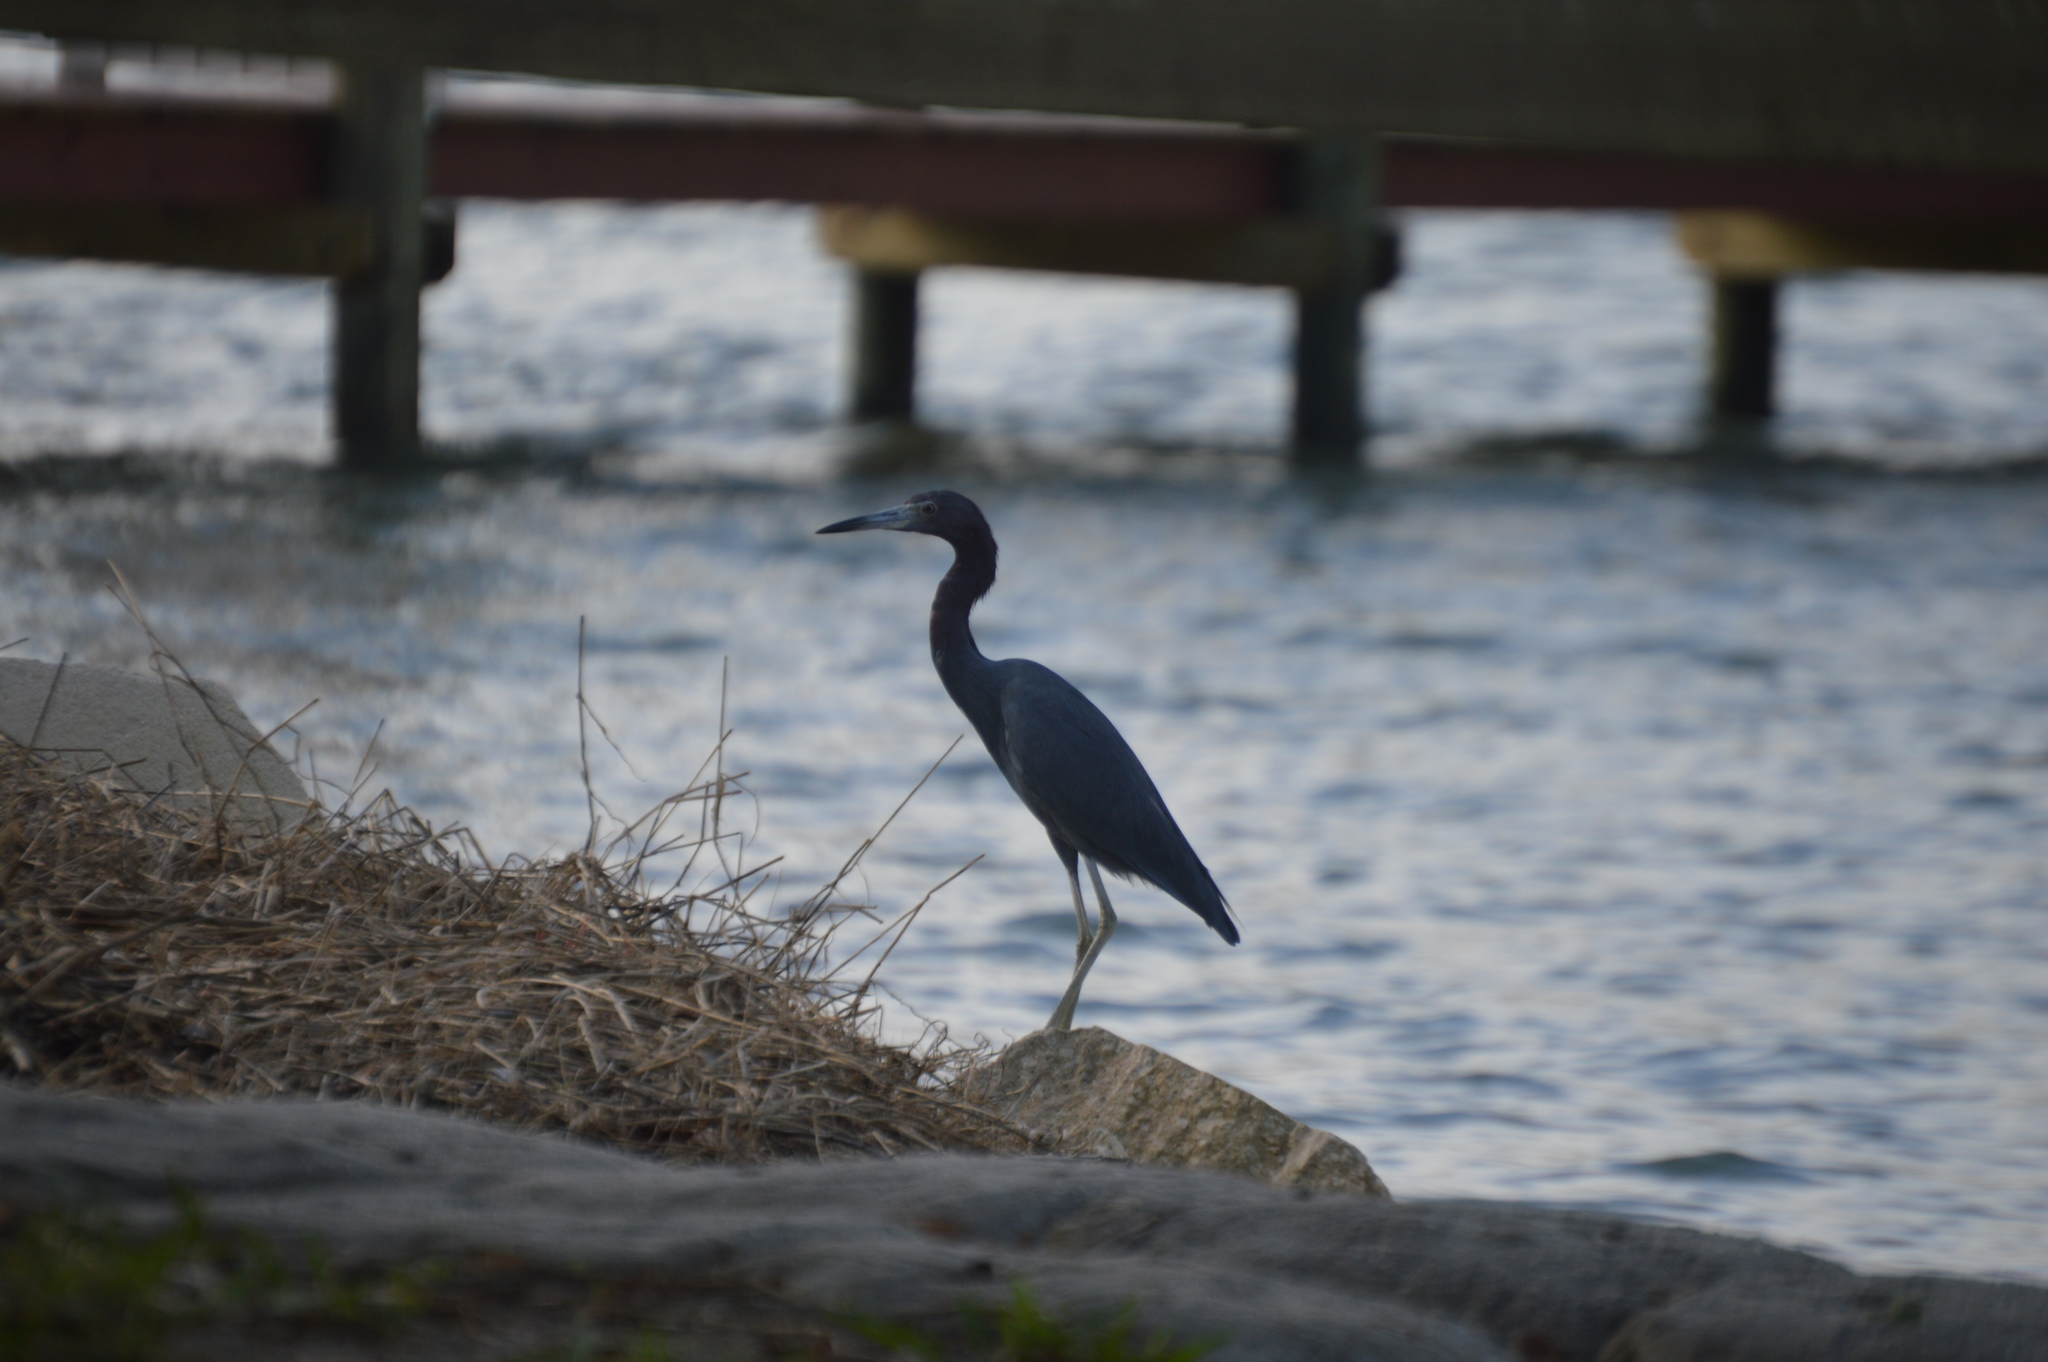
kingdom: Animalia
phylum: Chordata
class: Aves
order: Pelecaniformes
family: Ardeidae
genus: Egretta
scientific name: Egretta caerulea
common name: Little blue heron
